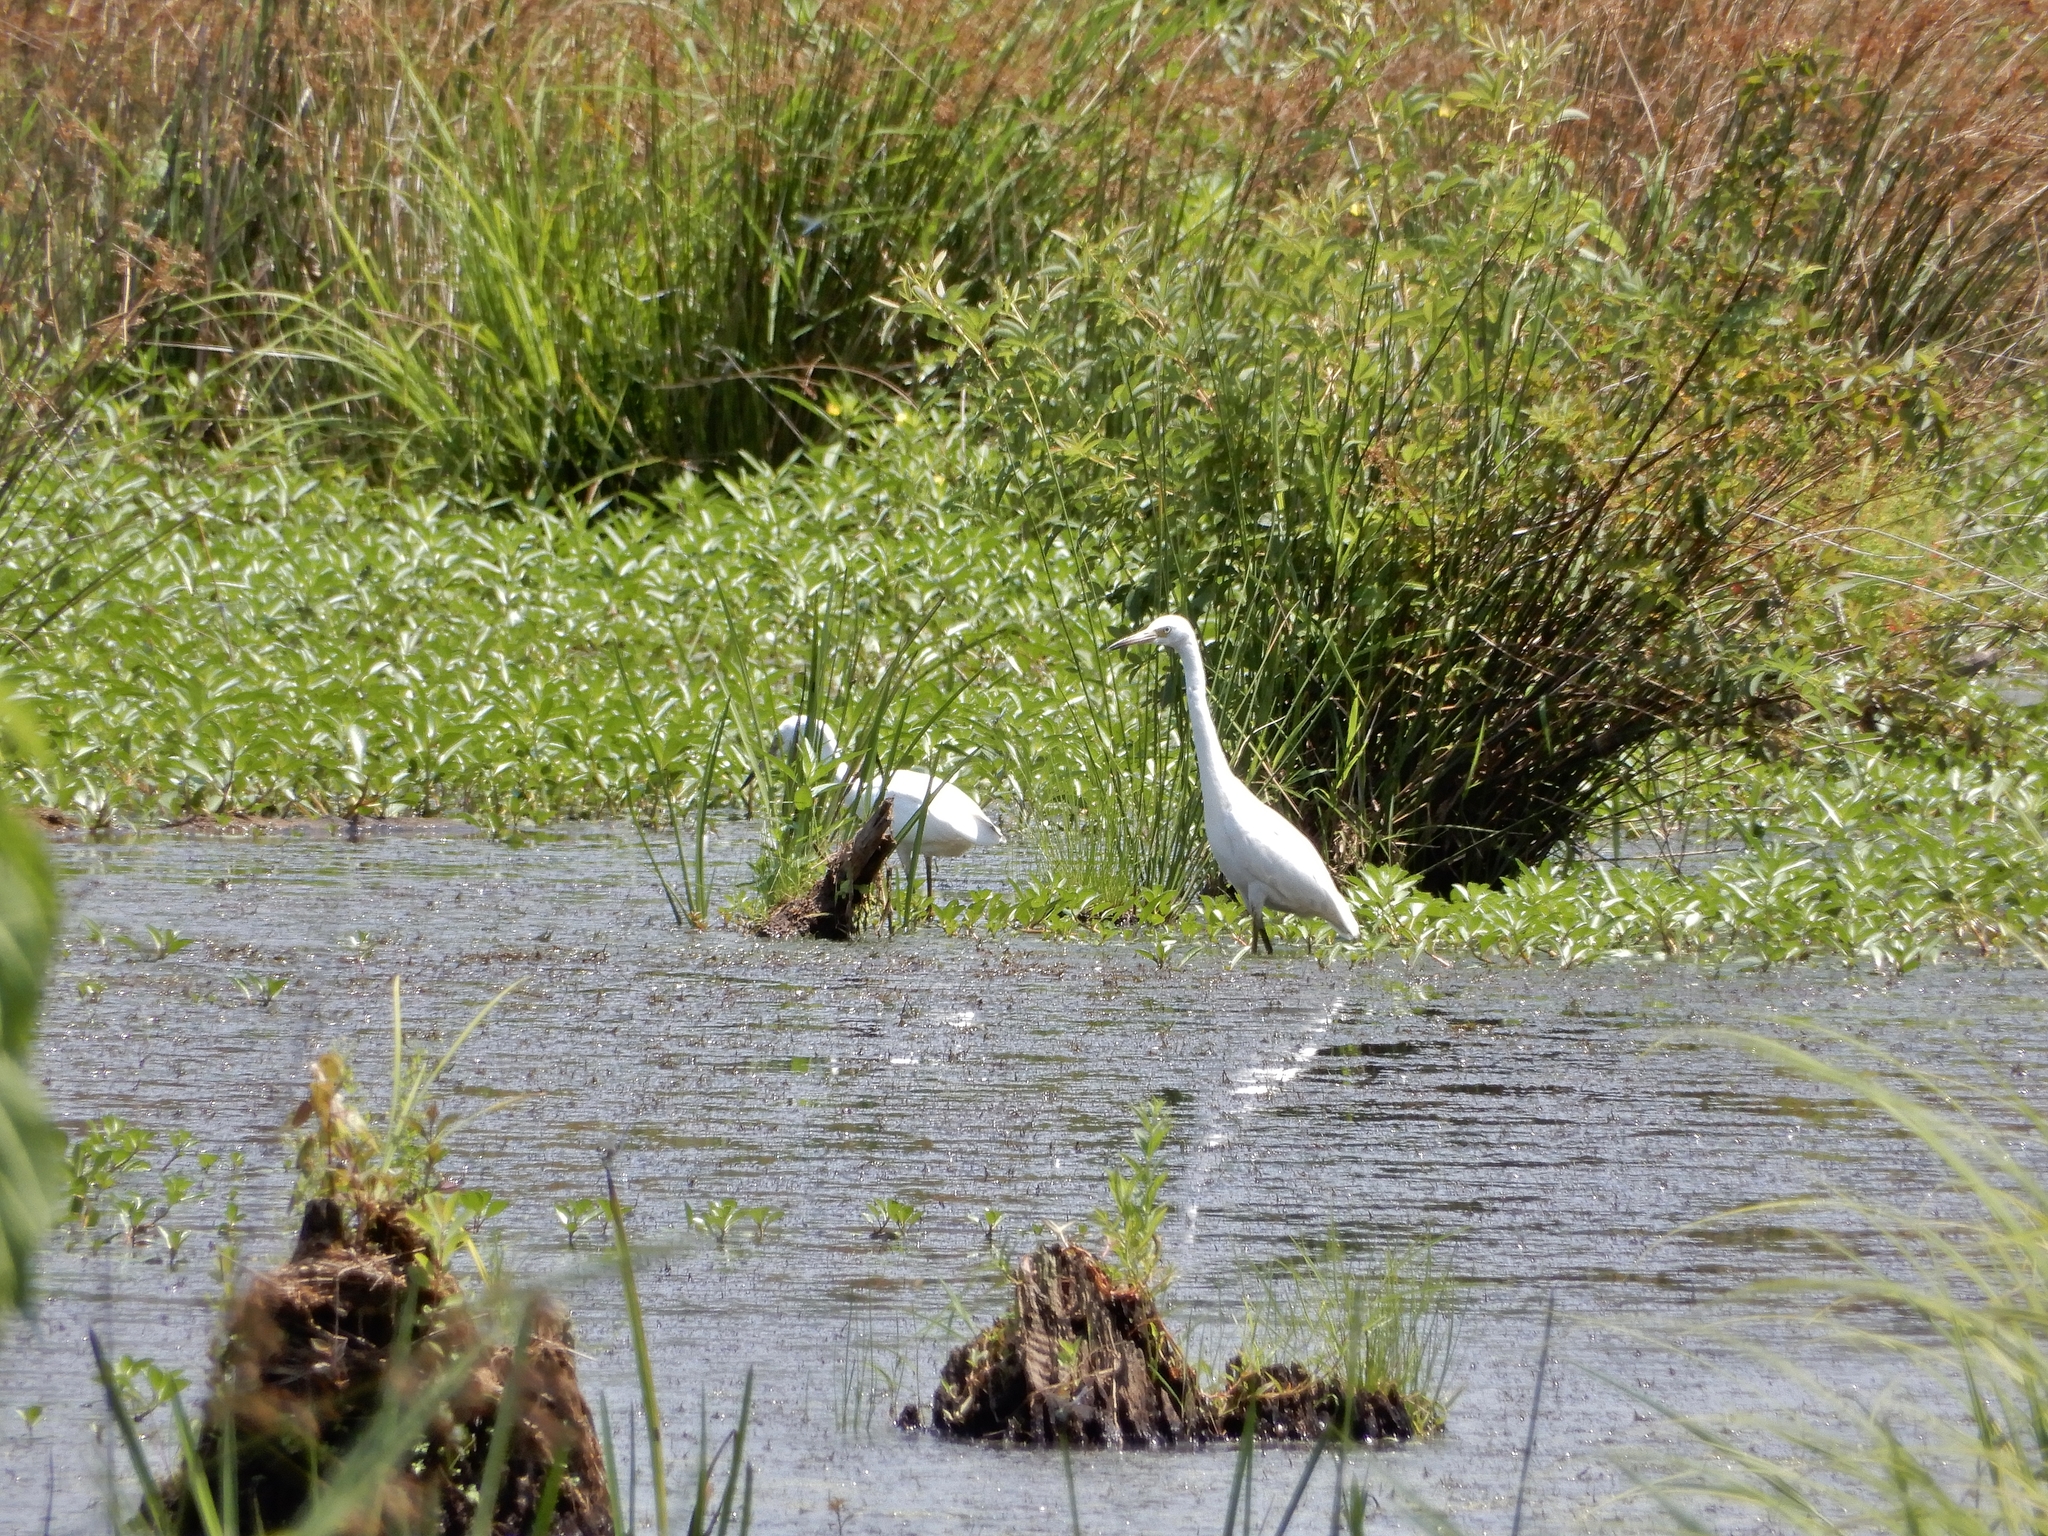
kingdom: Animalia
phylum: Chordata
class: Aves
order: Pelecaniformes
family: Ardeidae
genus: Egretta
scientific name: Egretta thula
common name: Snowy egret
